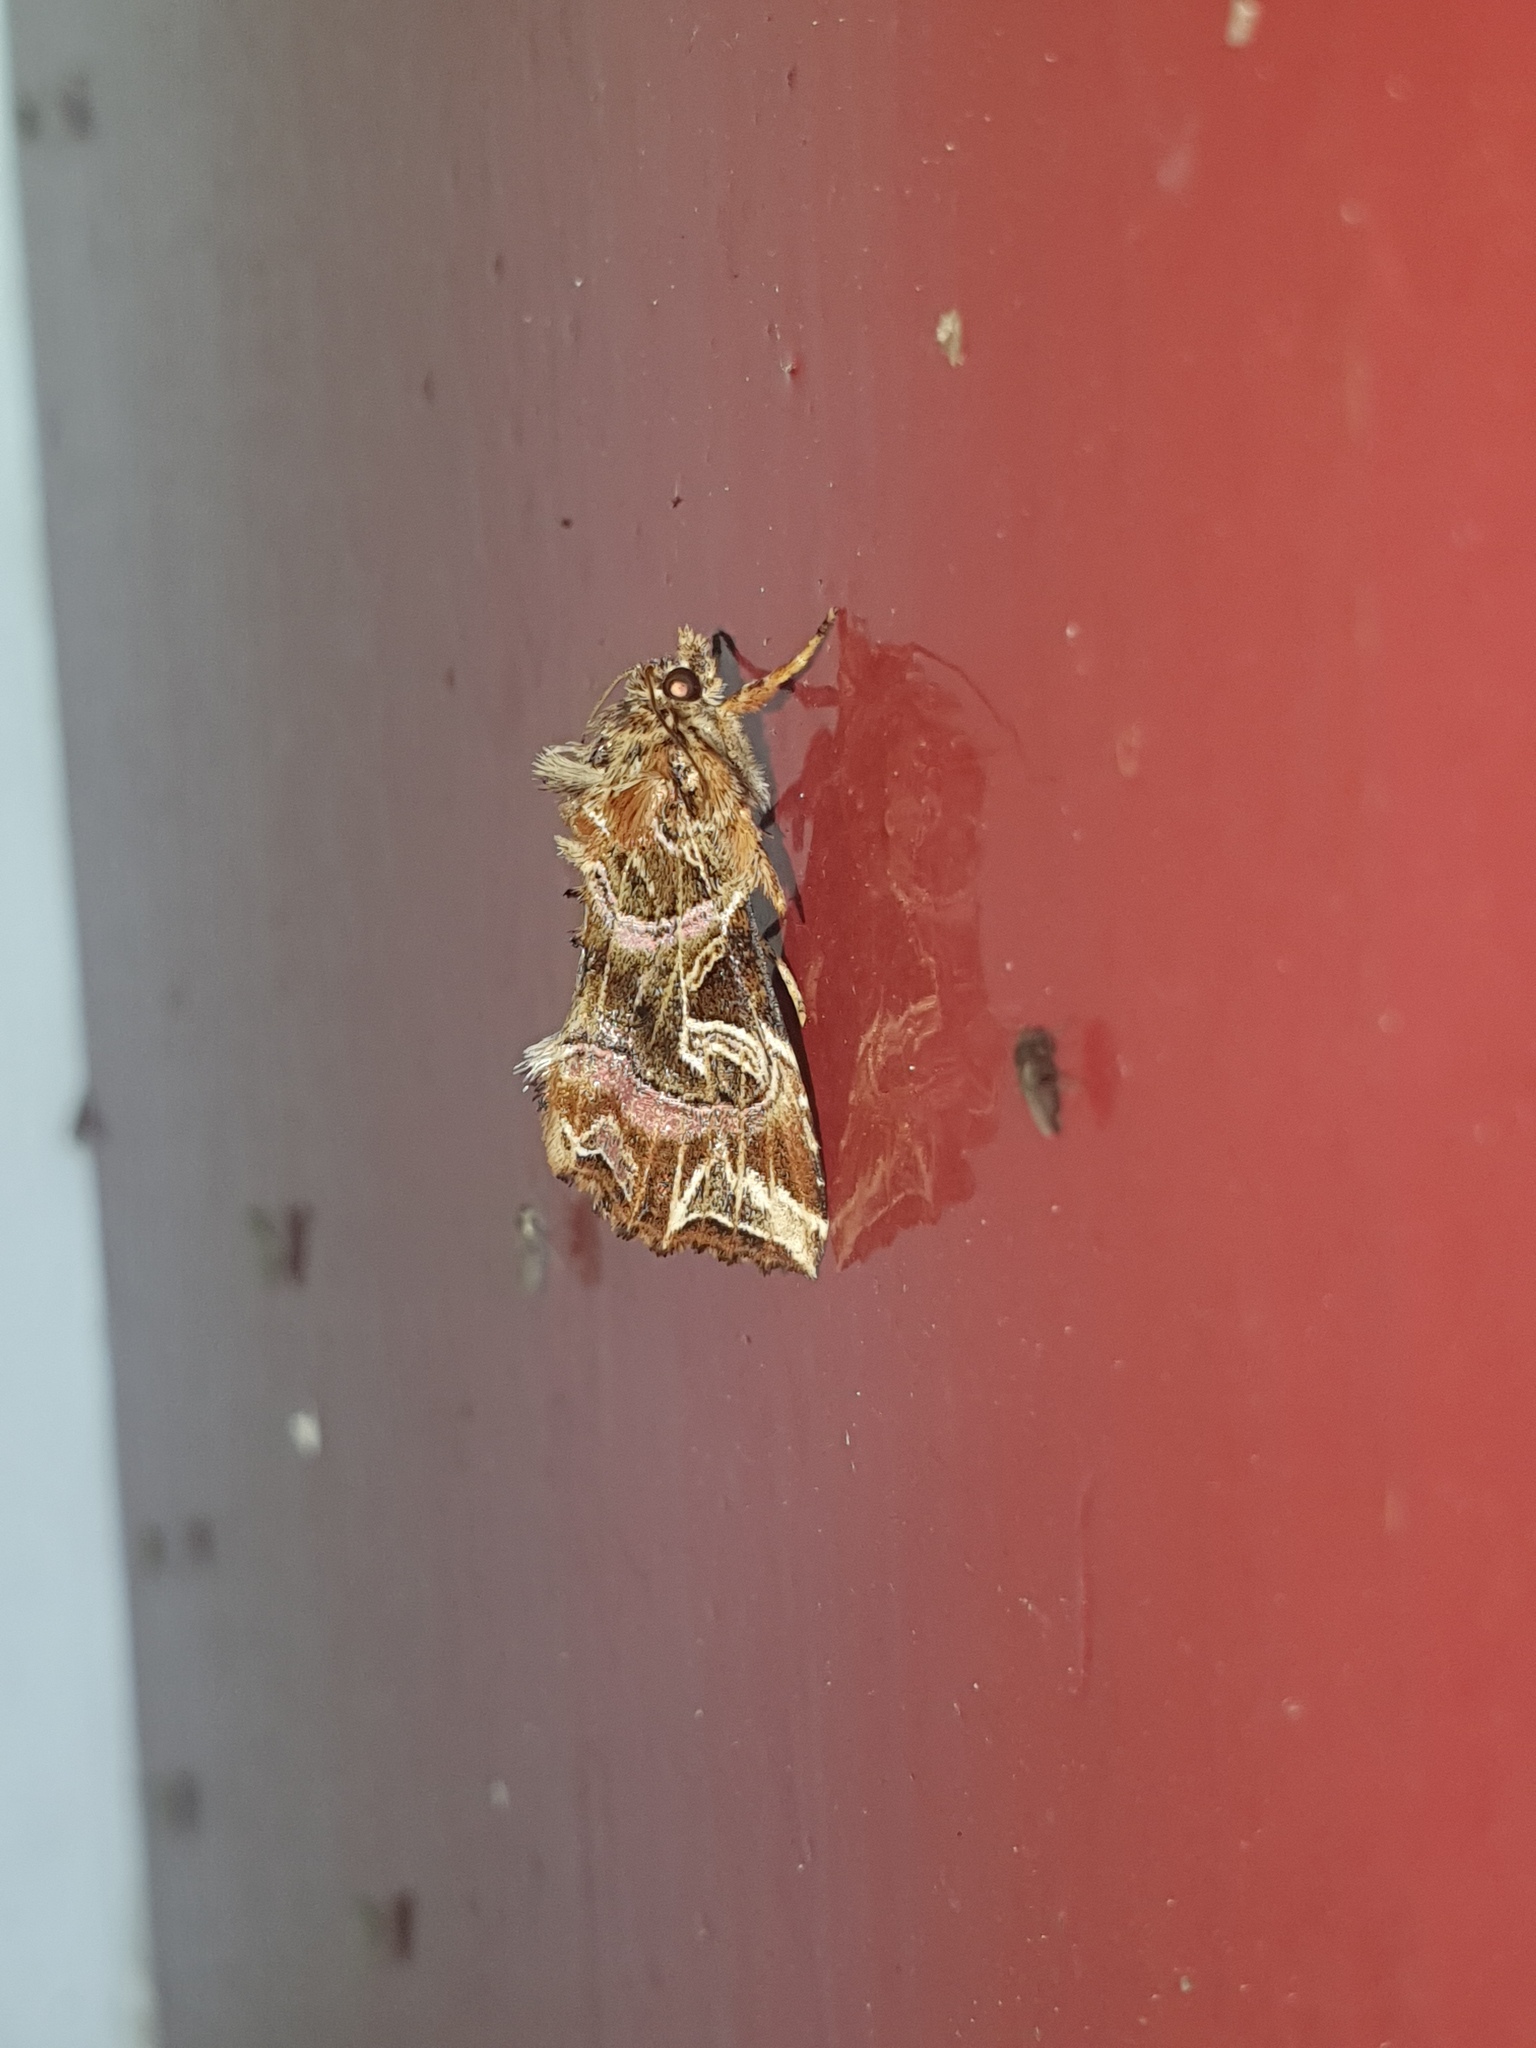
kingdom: Animalia
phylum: Arthropoda
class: Insecta
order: Lepidoptera
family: Noctuidae
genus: Callopistria
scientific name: Callopistria juventina
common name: Latin
